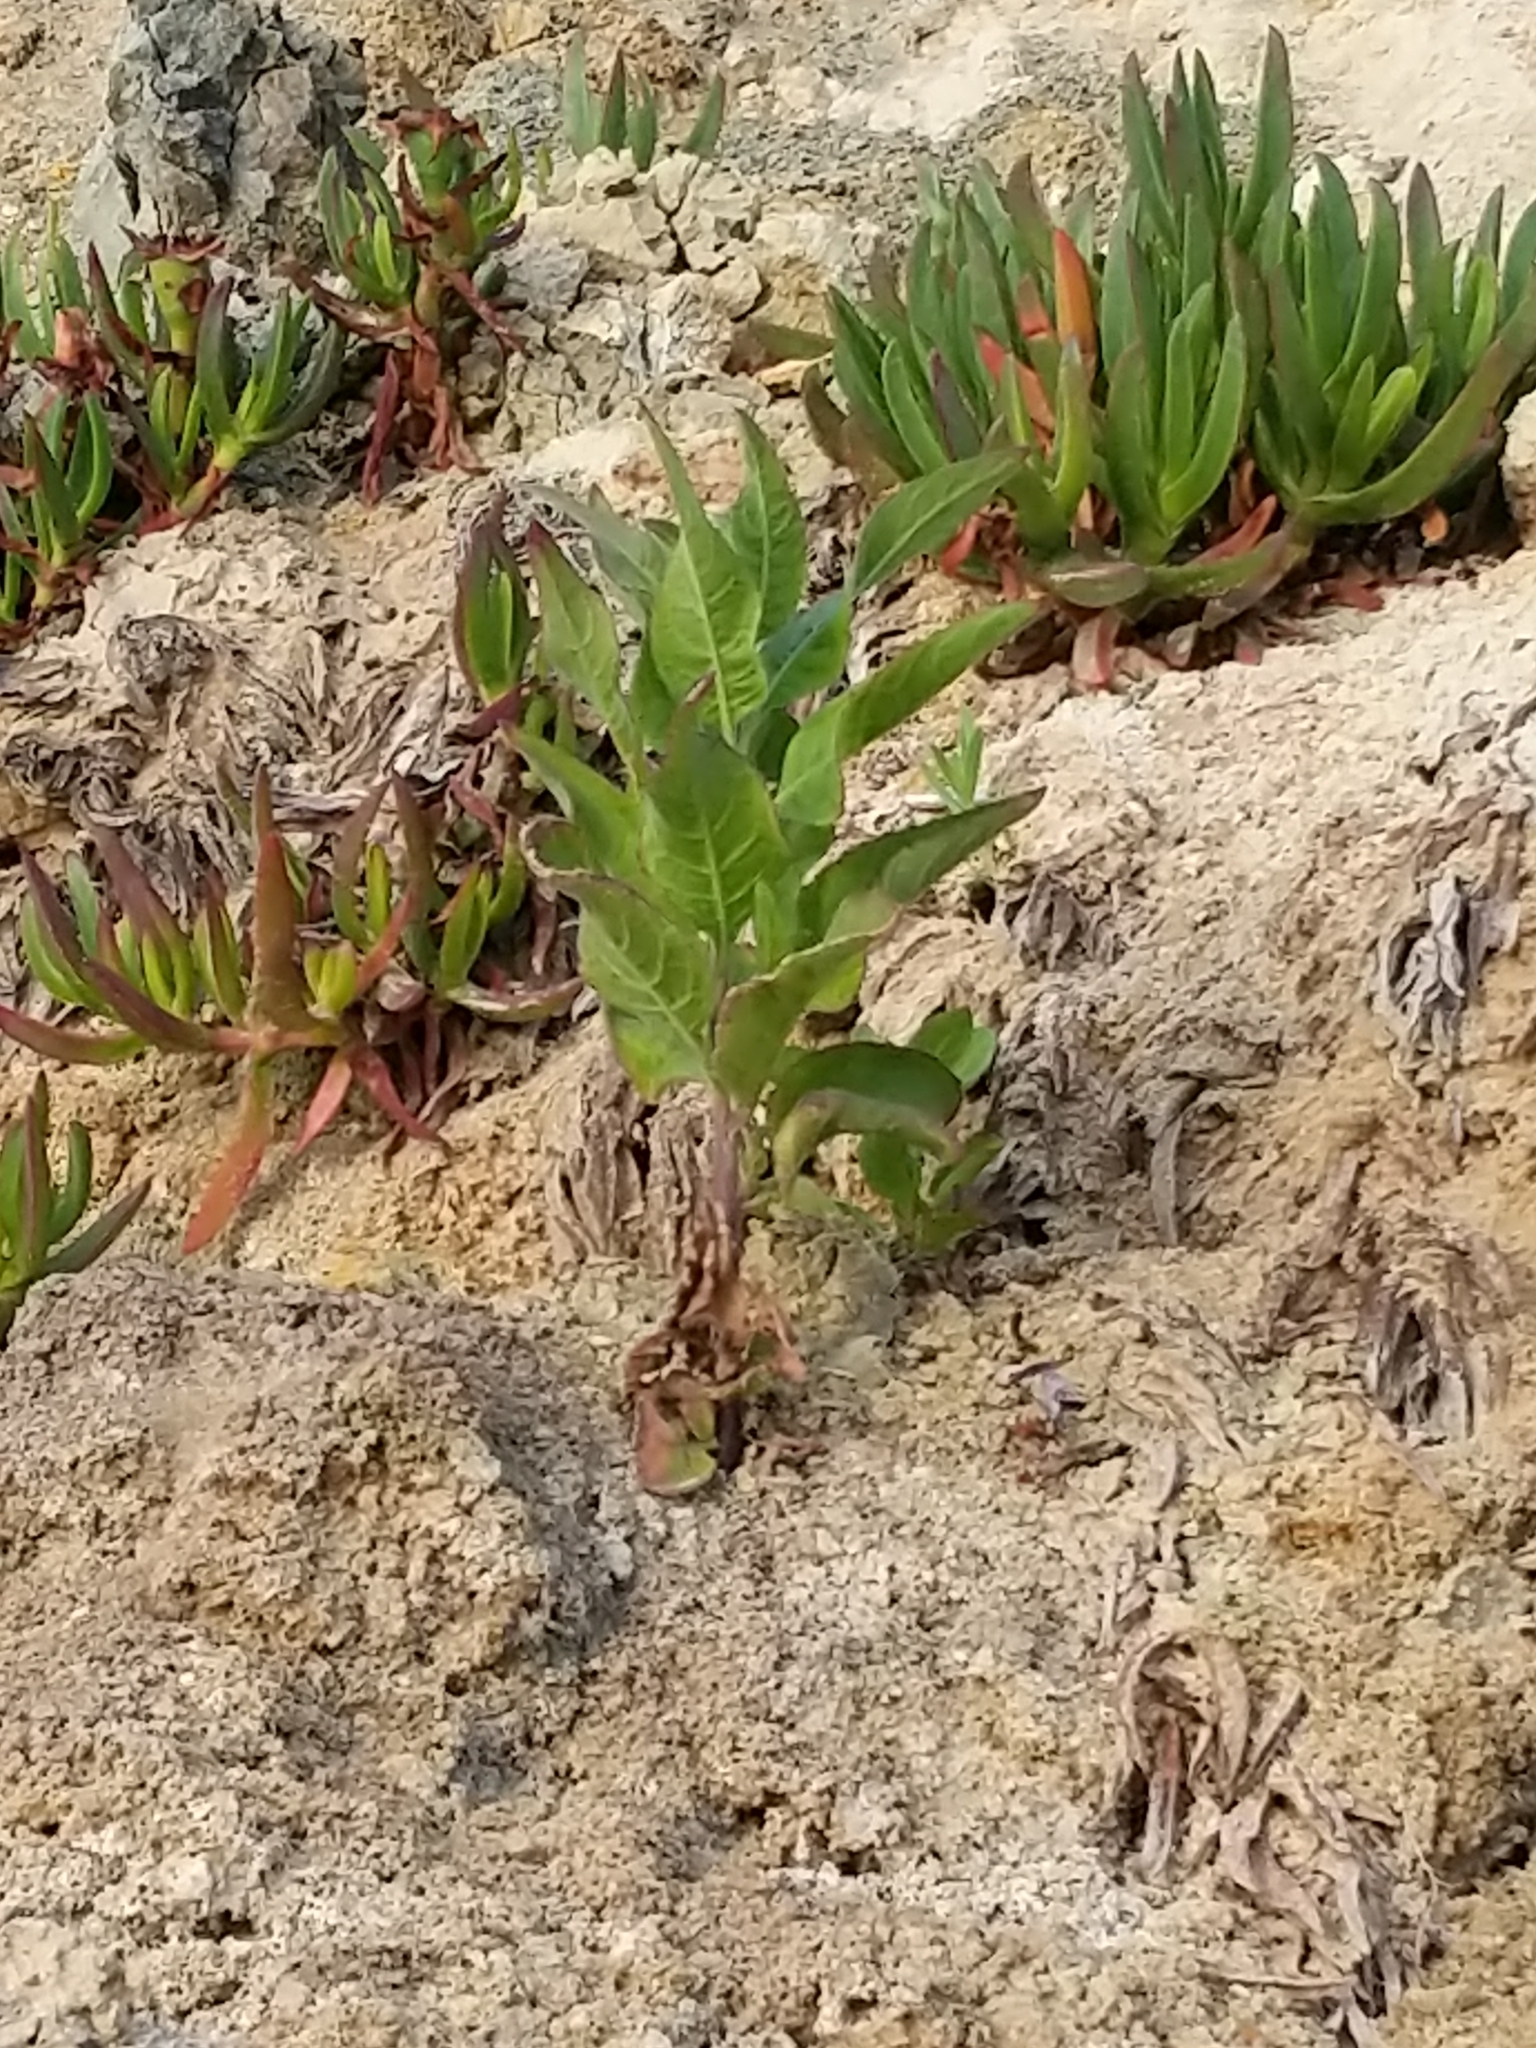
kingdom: Plantae
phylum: Tracheophyta
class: Magnoliopsida
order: Asterales
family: Asteraceae
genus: Pluchea
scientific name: Pluchea odorata
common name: Saltmarsh fleabane
